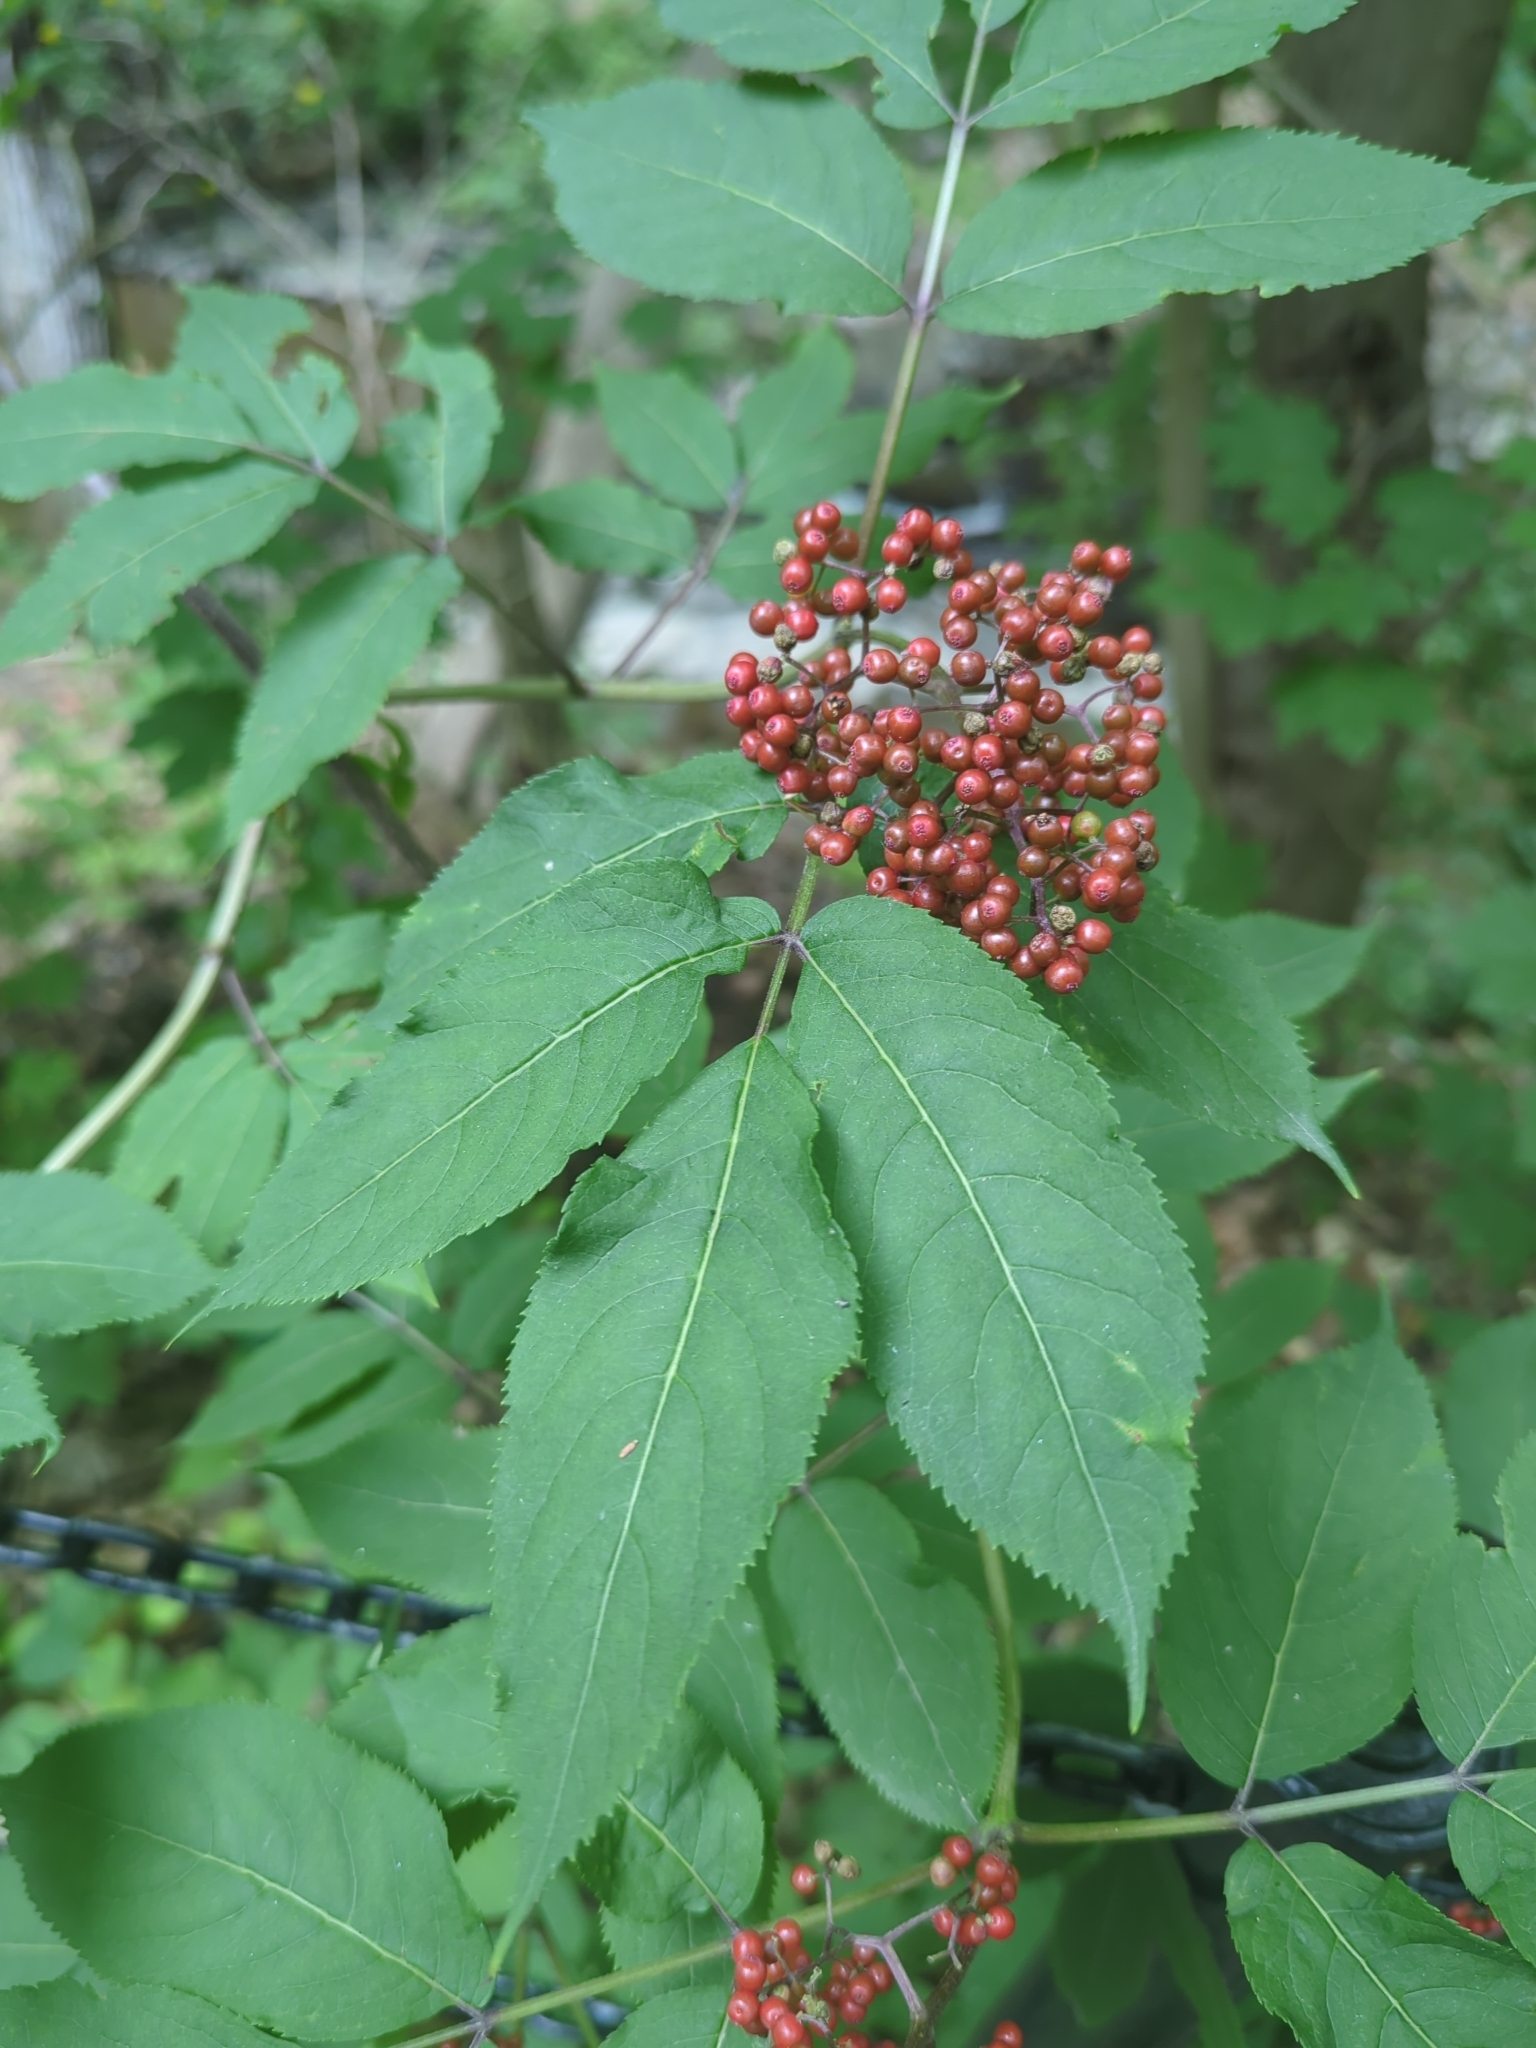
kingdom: Plantae
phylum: Tracheophyta
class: Magnoliopsida
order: Dipsacales
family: Viburnaceae
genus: Sambucus
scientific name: Sambucus racemosa
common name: Red-berried elder
